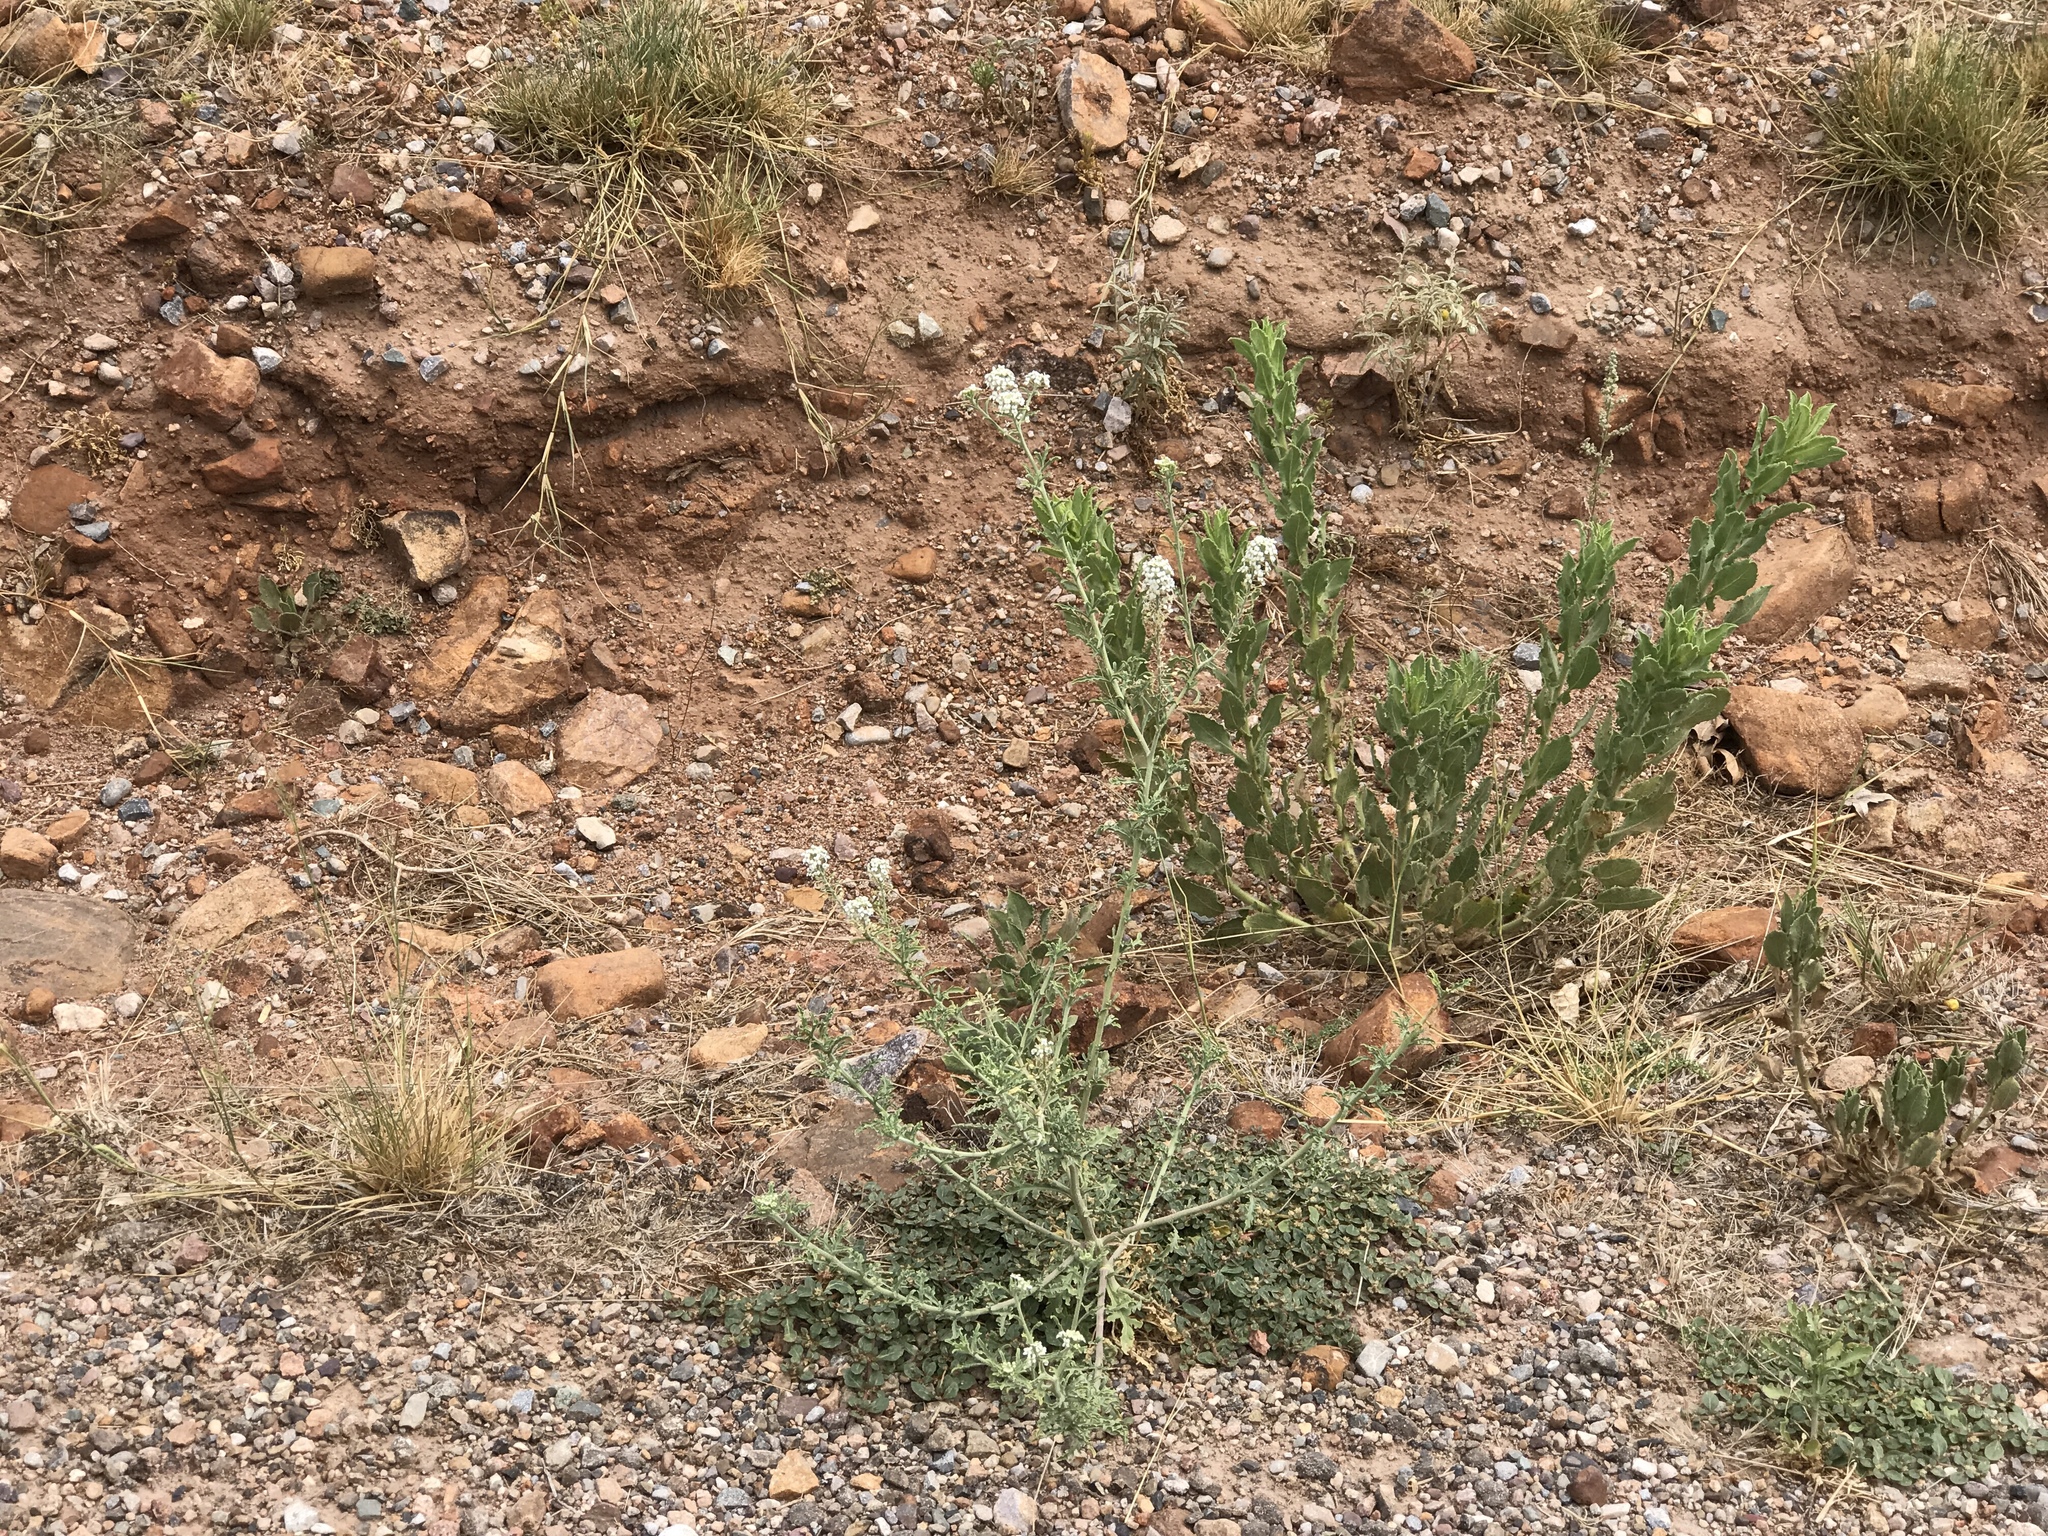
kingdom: Plantae
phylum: Tracheophyta
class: Magnoliopsida
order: Brassicales
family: Brassicaceae
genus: Lepidium
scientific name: Lepidium thurberi
